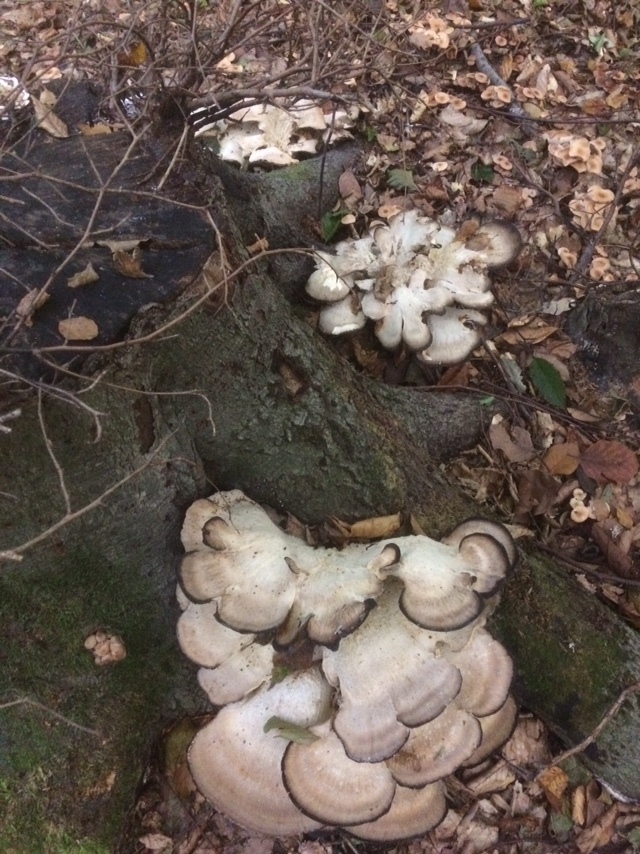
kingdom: Fungi
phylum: Basidiomycota
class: Agaricomycetes
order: Polyporales
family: Meripilaceae
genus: Meripilus
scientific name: Meripilus giganteus
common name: Giant polypore
